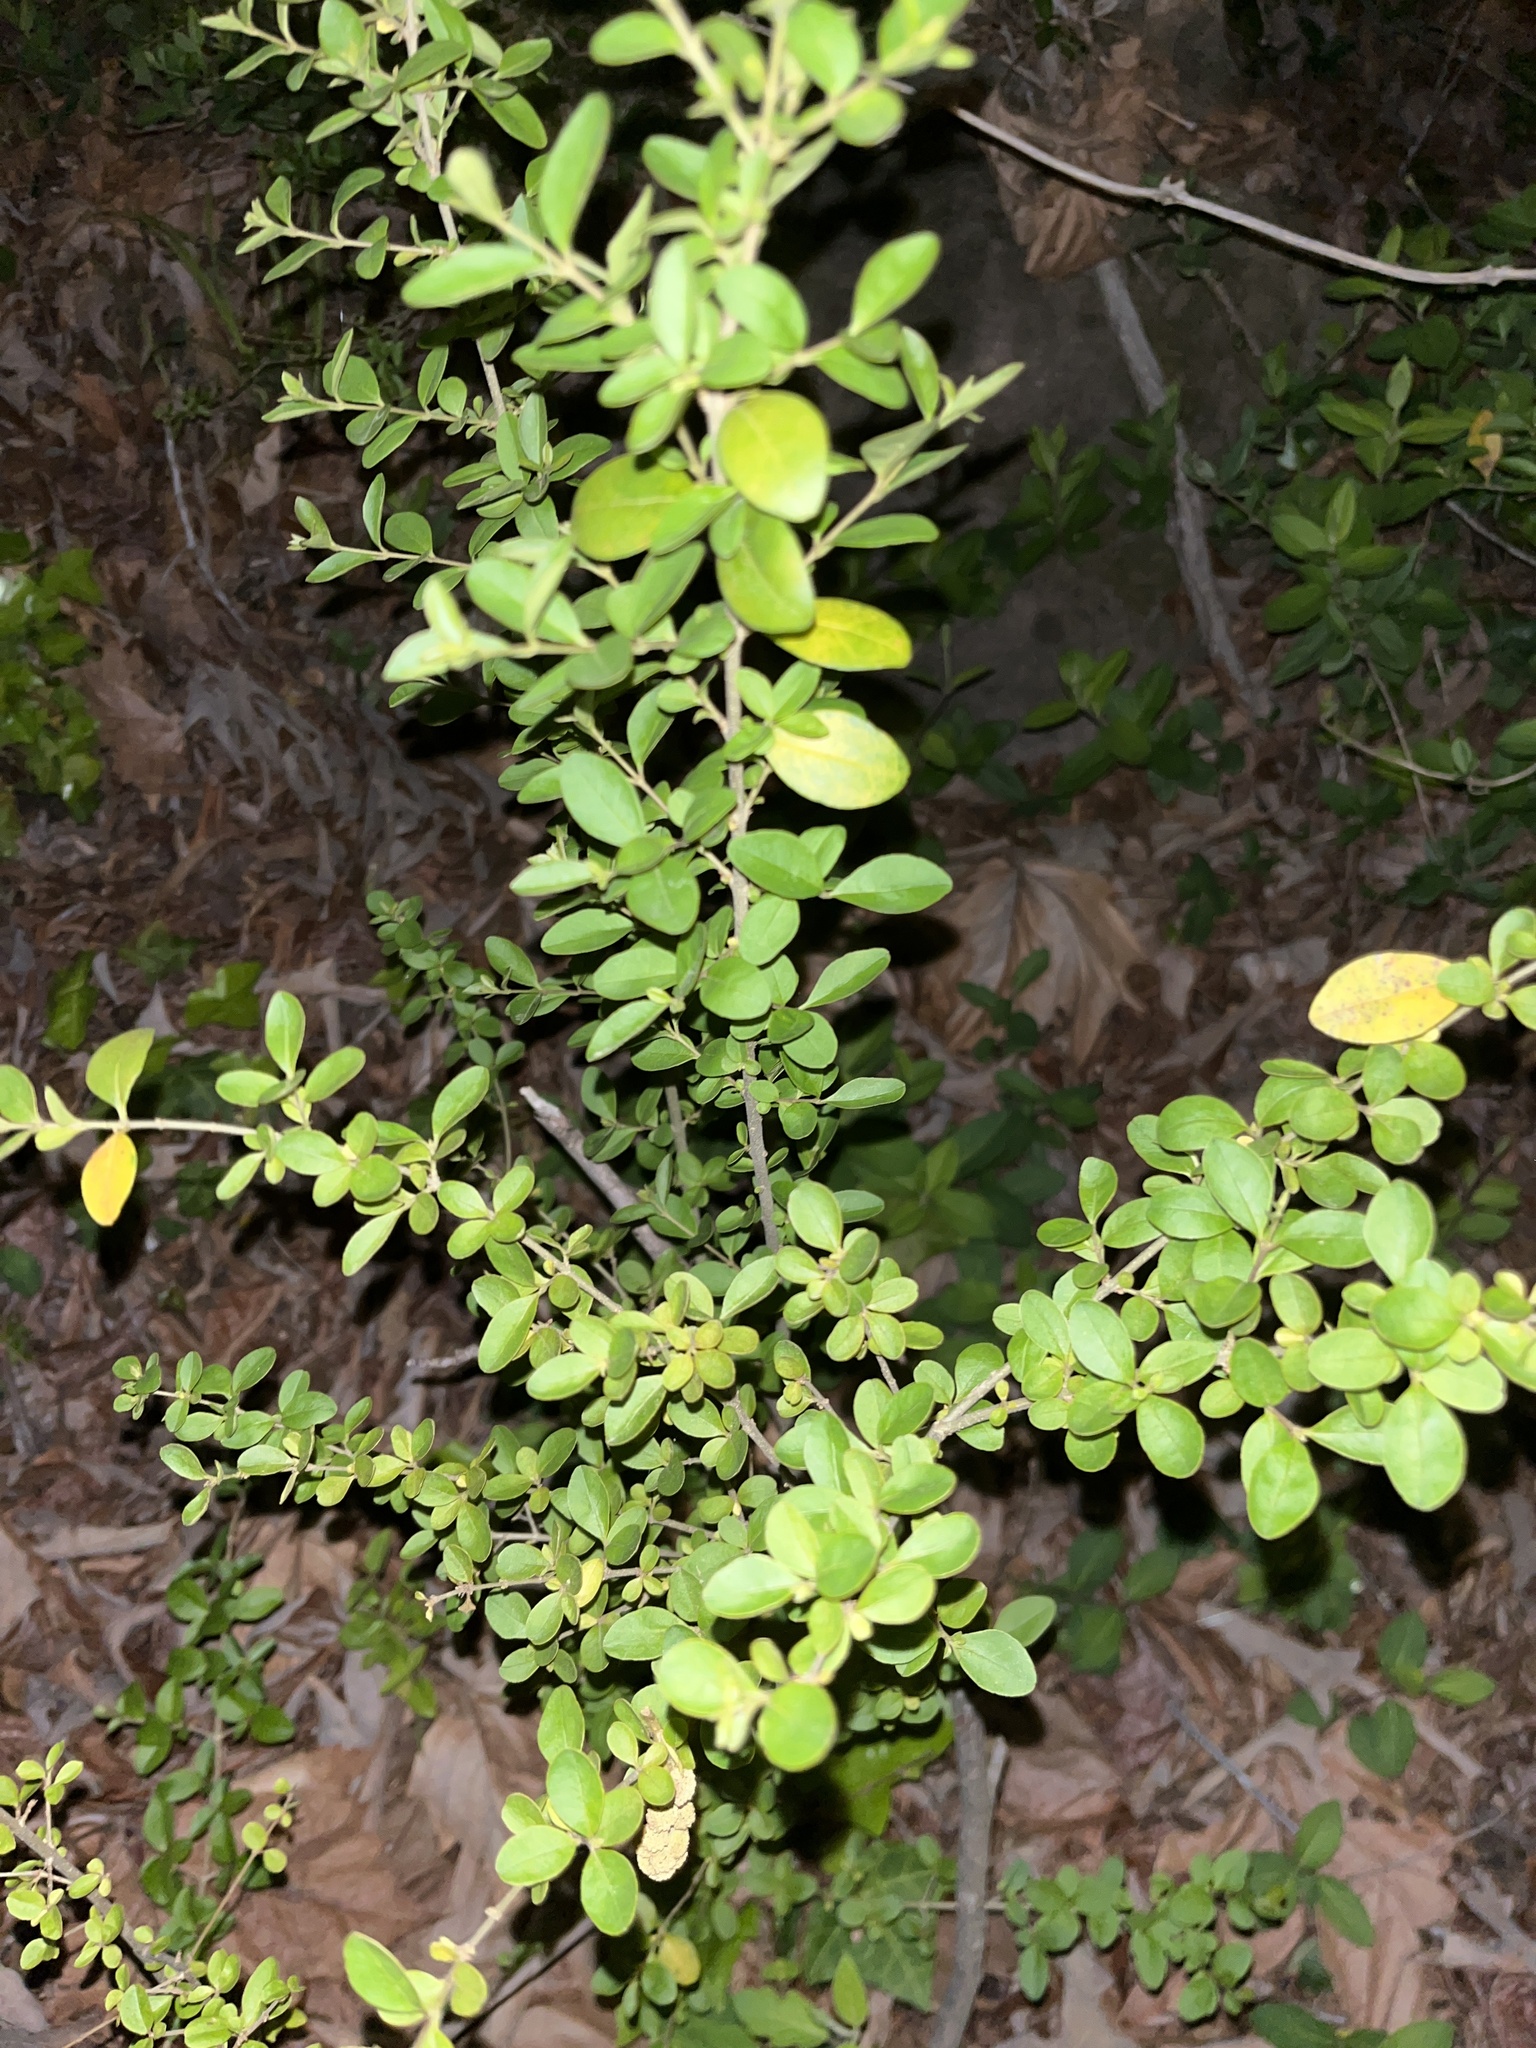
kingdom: Plantae
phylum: Tracheophyta
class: Magnoliopsida
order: Lamiales
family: Oleaceae
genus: Ligustrum
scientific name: Ligustrum sinense
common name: Chinese privet
